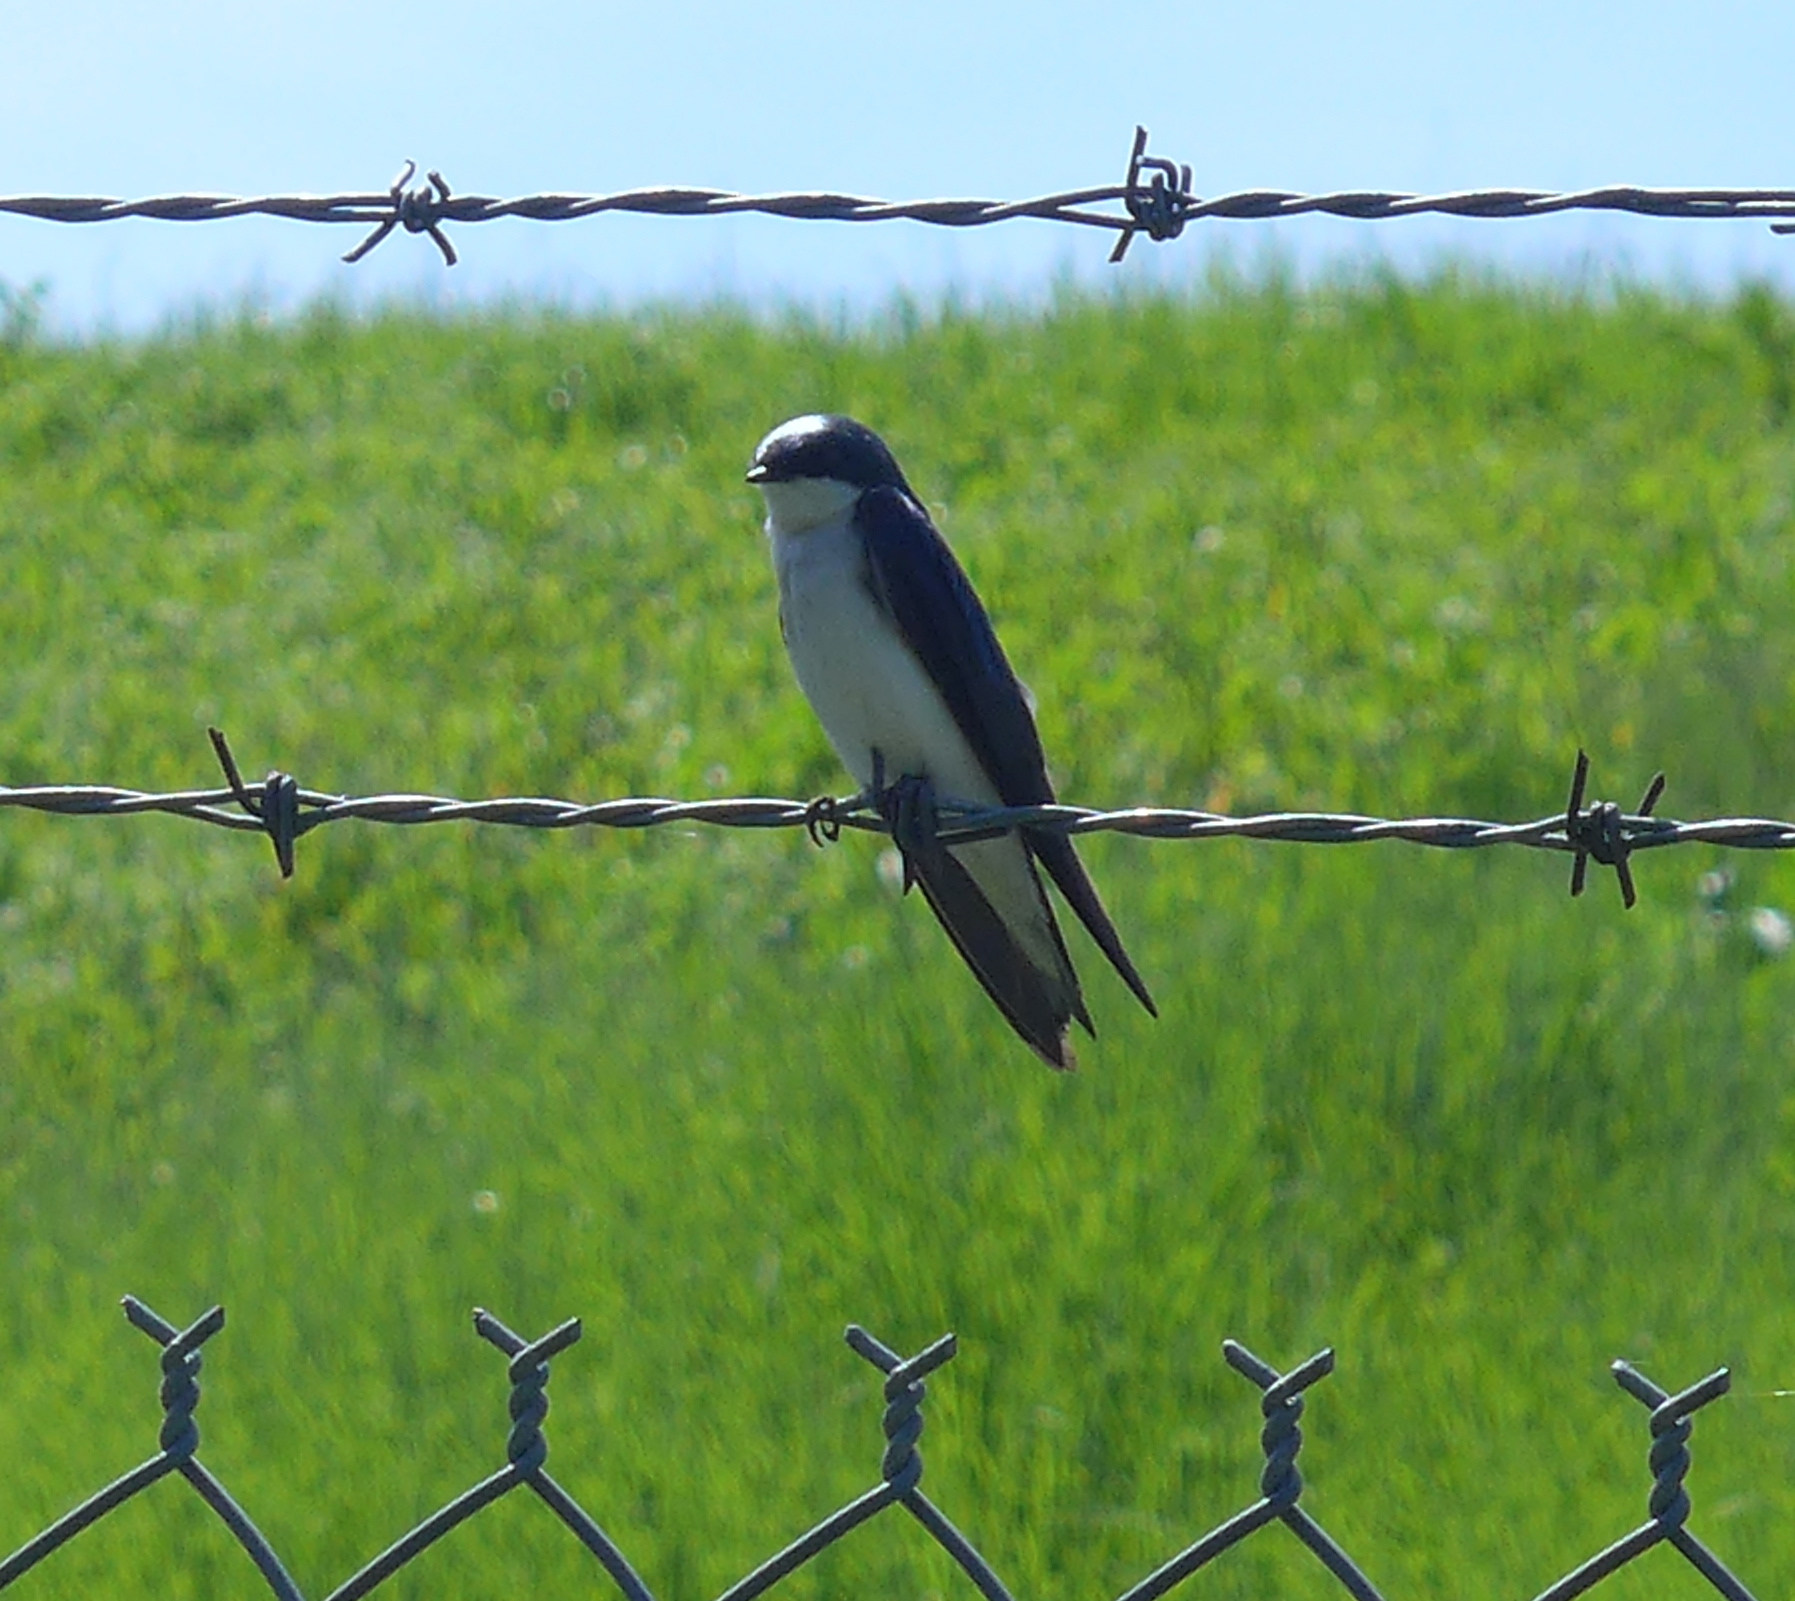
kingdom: Animalia
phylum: Chordata
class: Aves
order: Passeriformes
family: Hirundinidae
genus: Tachycineta
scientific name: Tachycineta bicolor
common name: Tree swallow
